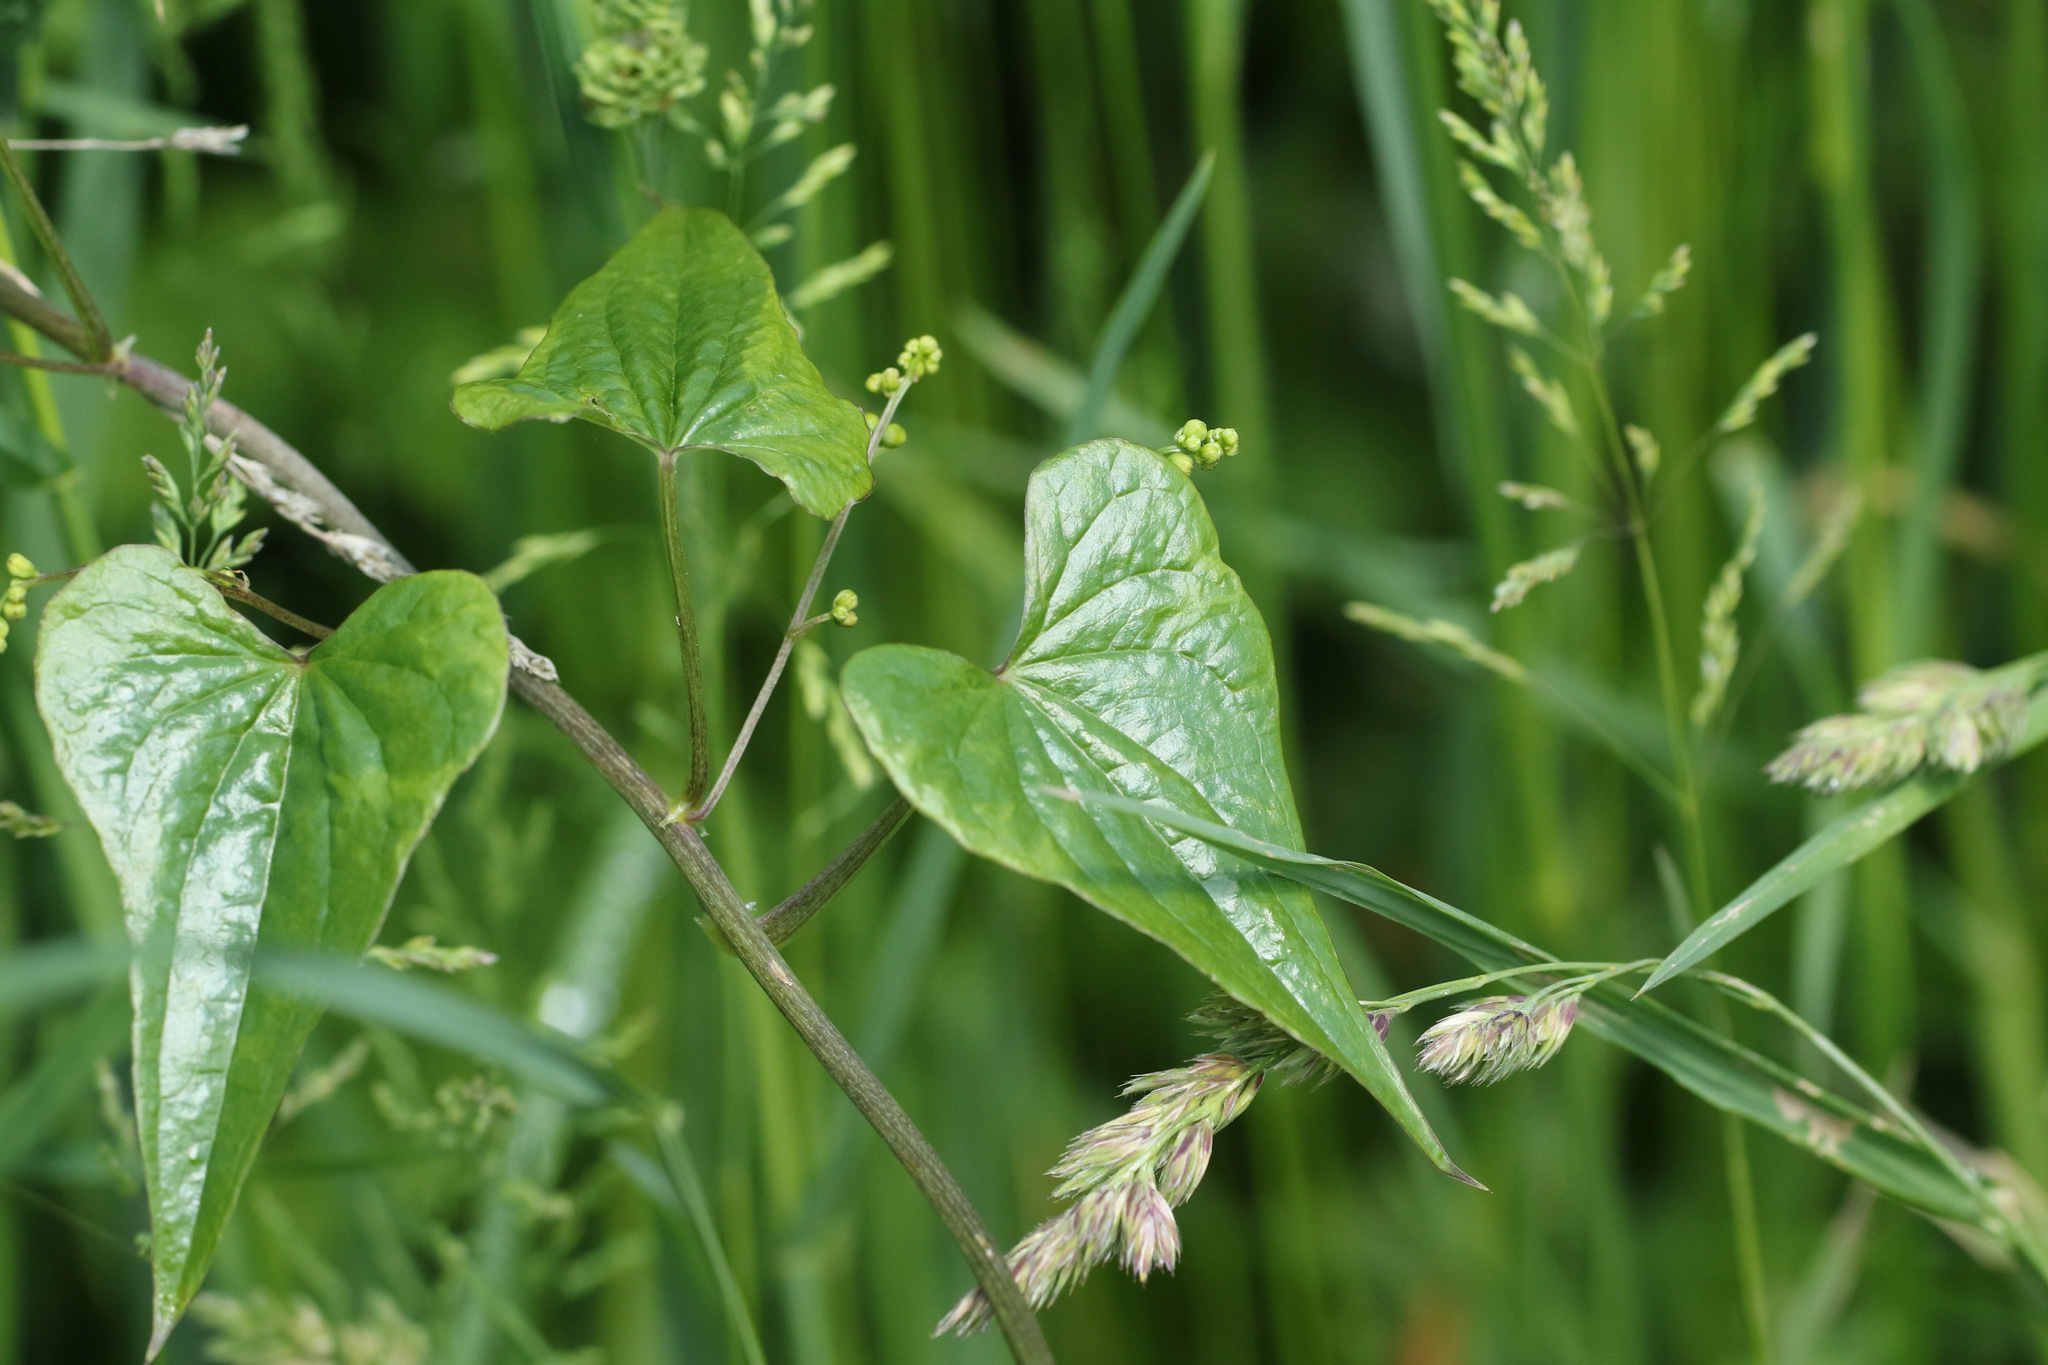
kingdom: Plantae
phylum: Tracheophyta
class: Liliopsida
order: Dioscoreales
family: Dioscoreaceae
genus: Dioscorea
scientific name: Dioscorea communis
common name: Black-bindweed
